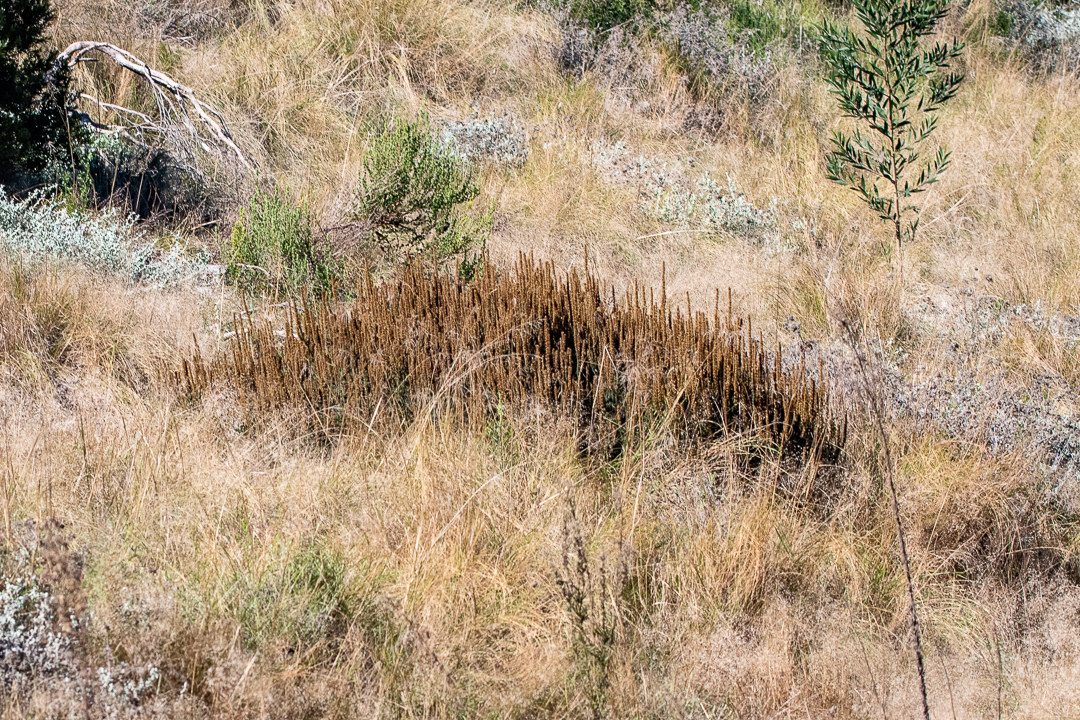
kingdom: Plantae
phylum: Tracheophyta
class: Magnoliopsida
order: Asterales
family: Asteraceae
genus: Seriphium
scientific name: Seriphium plumosum
